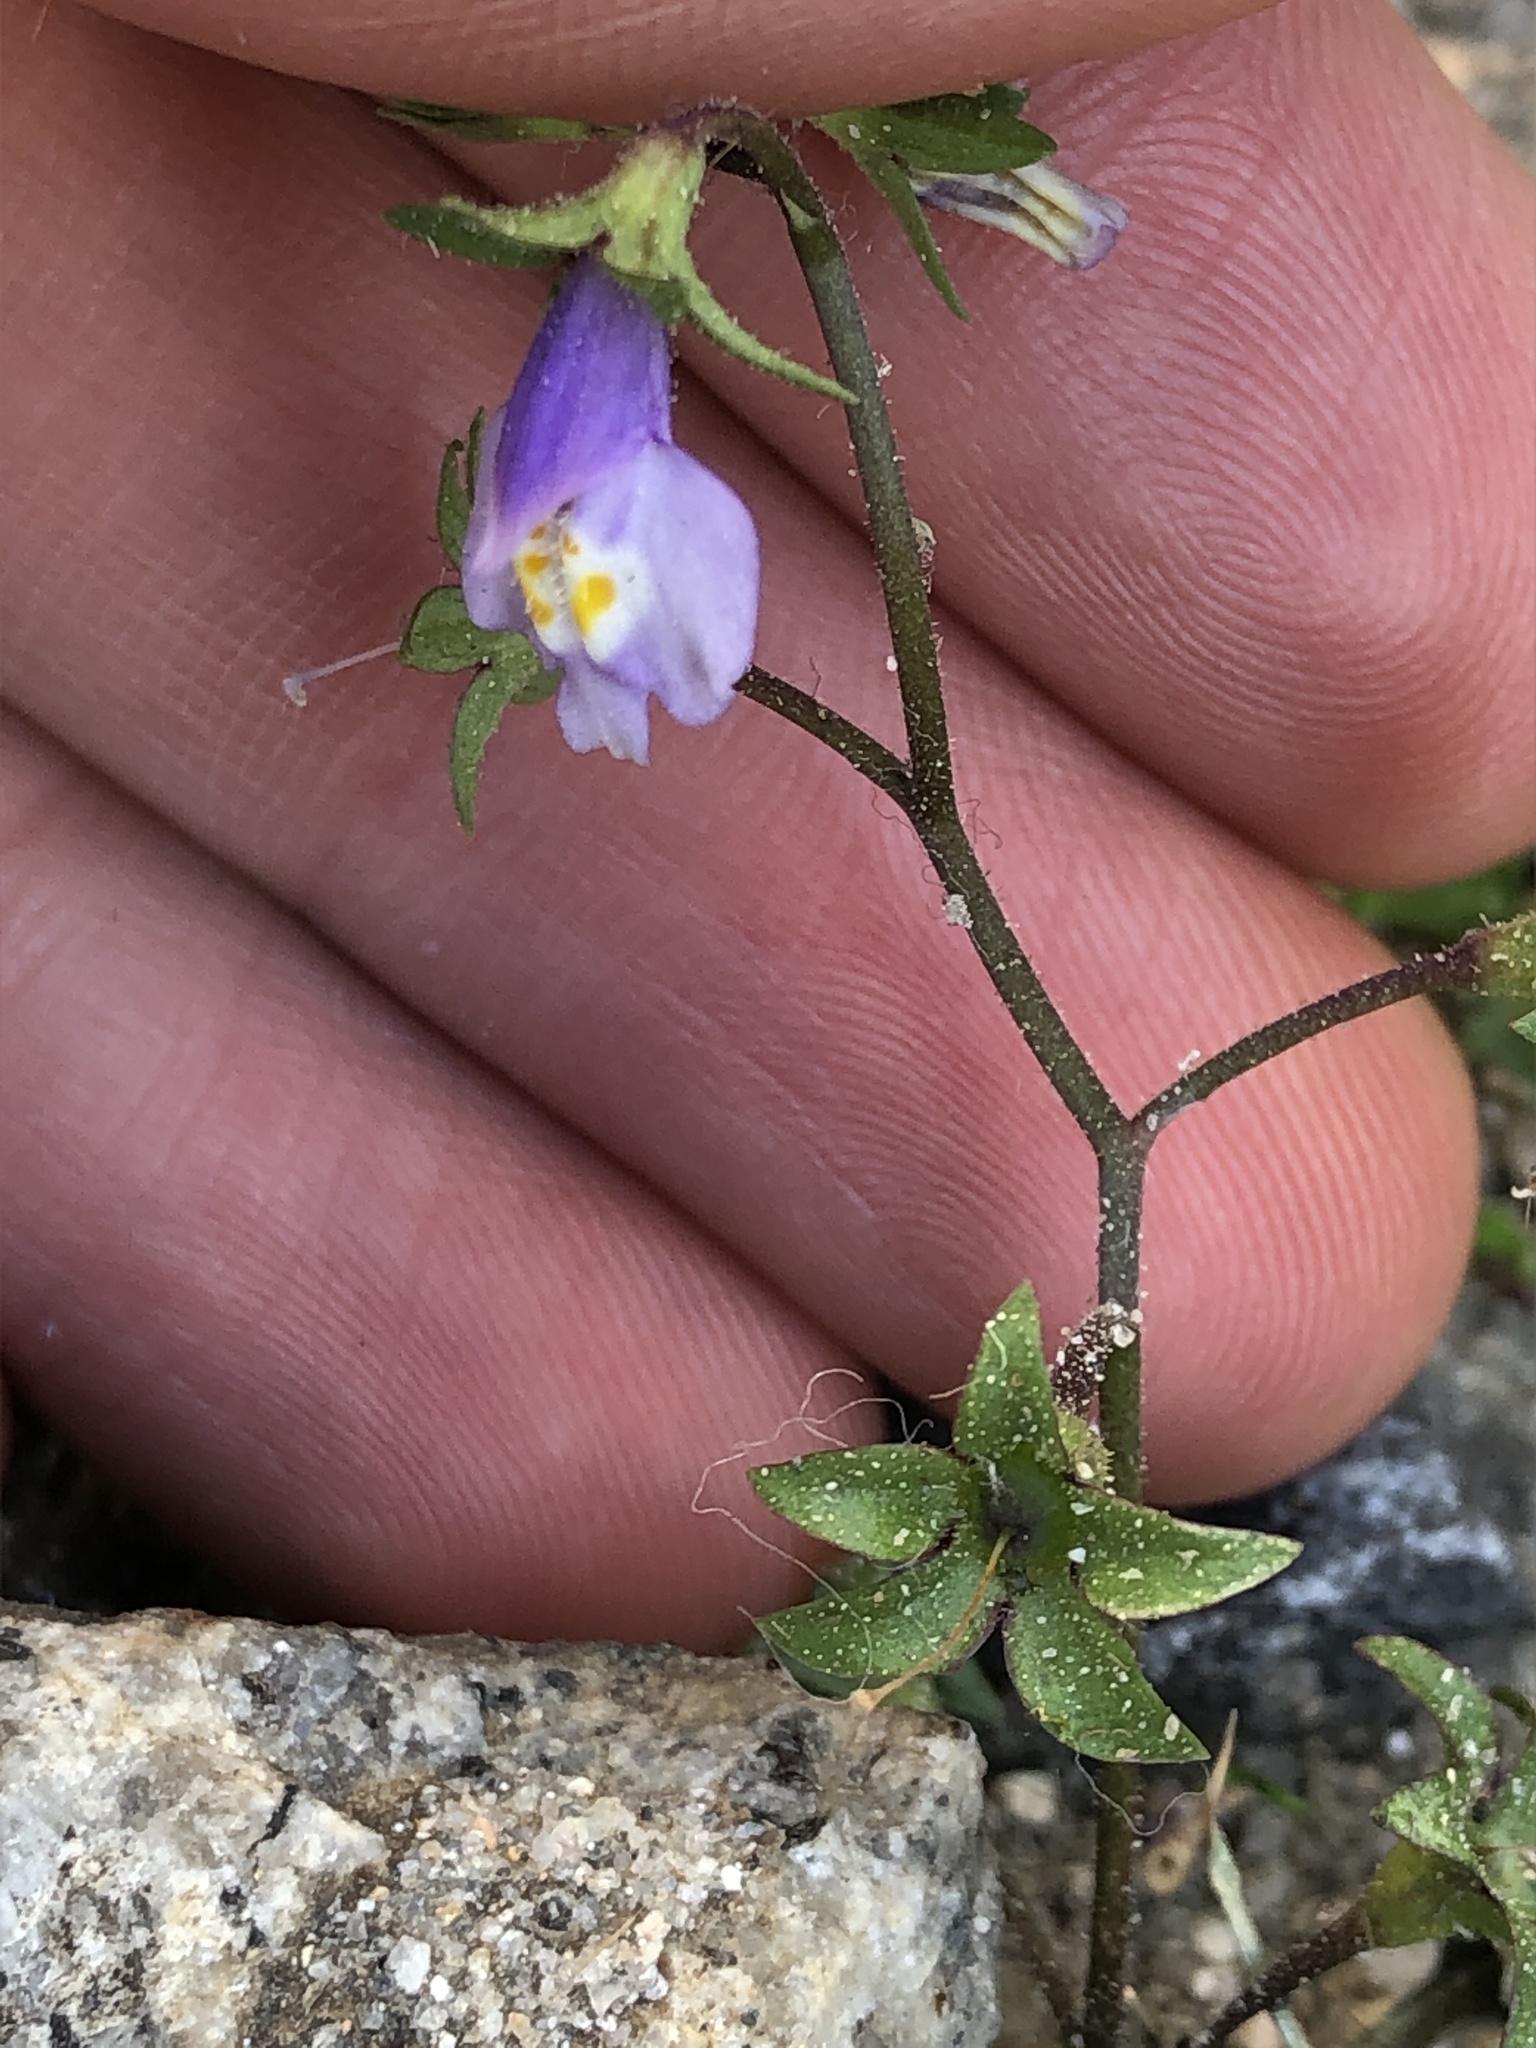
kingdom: Plantae
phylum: Tracheophyta
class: Magnoliopsida
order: Lamiales
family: Mazaceae
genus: Mazus
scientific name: Mazus pumilus
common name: Japanese mazus
